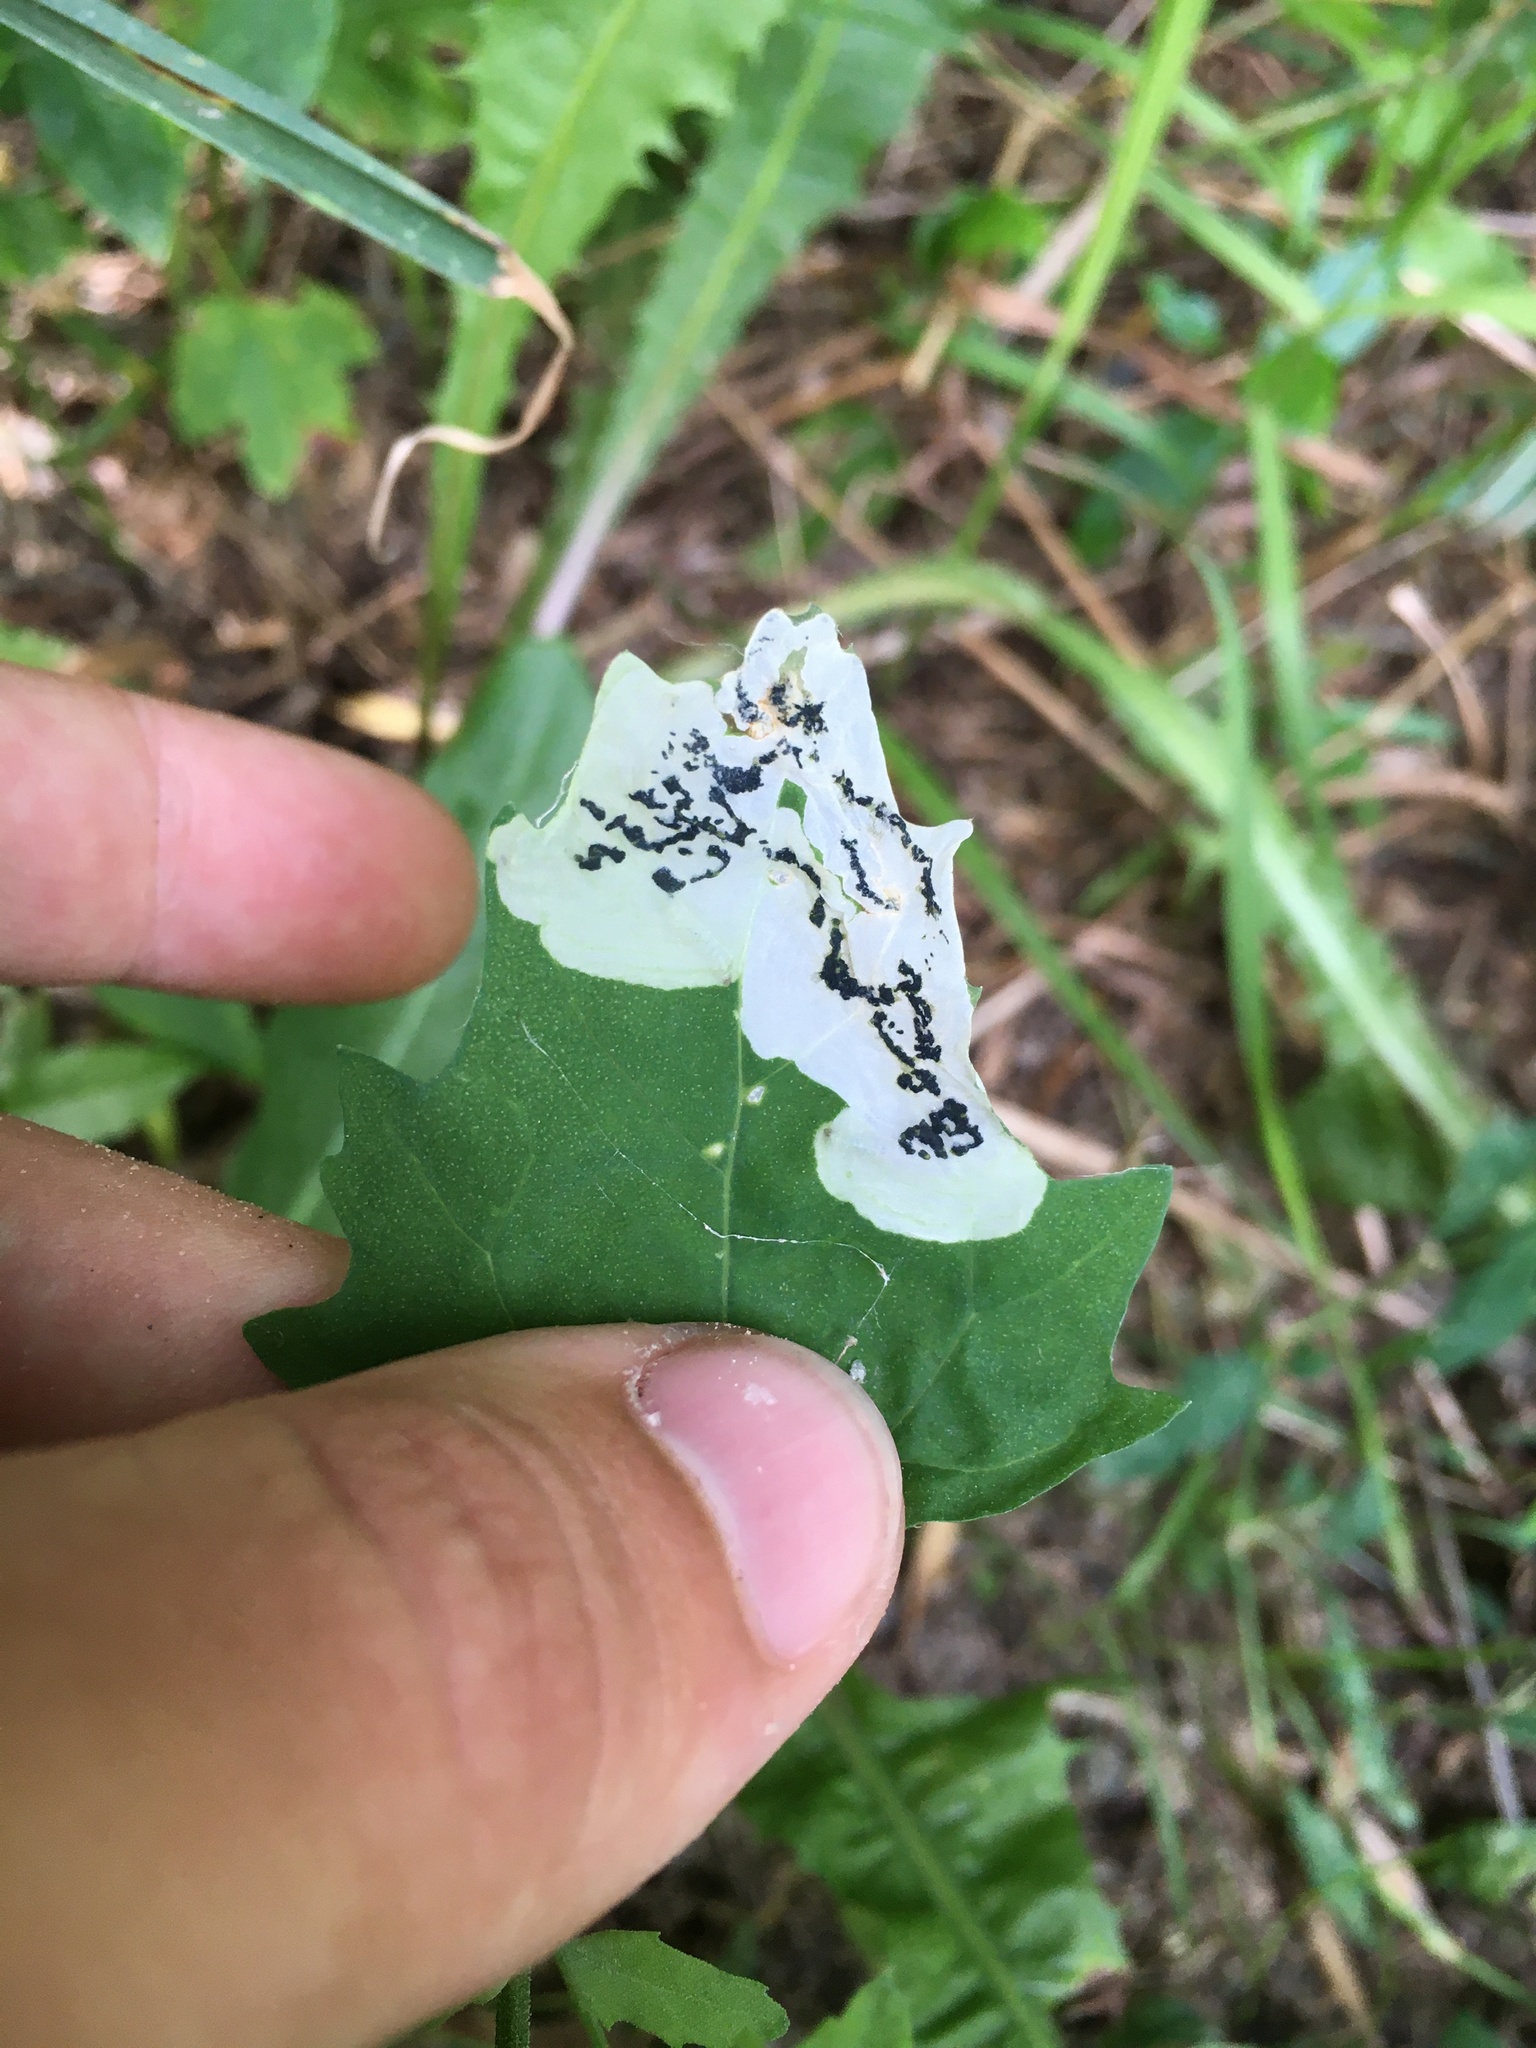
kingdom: Animalia
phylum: Arthropoda
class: Insecta
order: Lepidoptera
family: Gelechiidae
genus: Chrysoesthia
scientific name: Chrysoesthia sexguttella
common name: Moth
